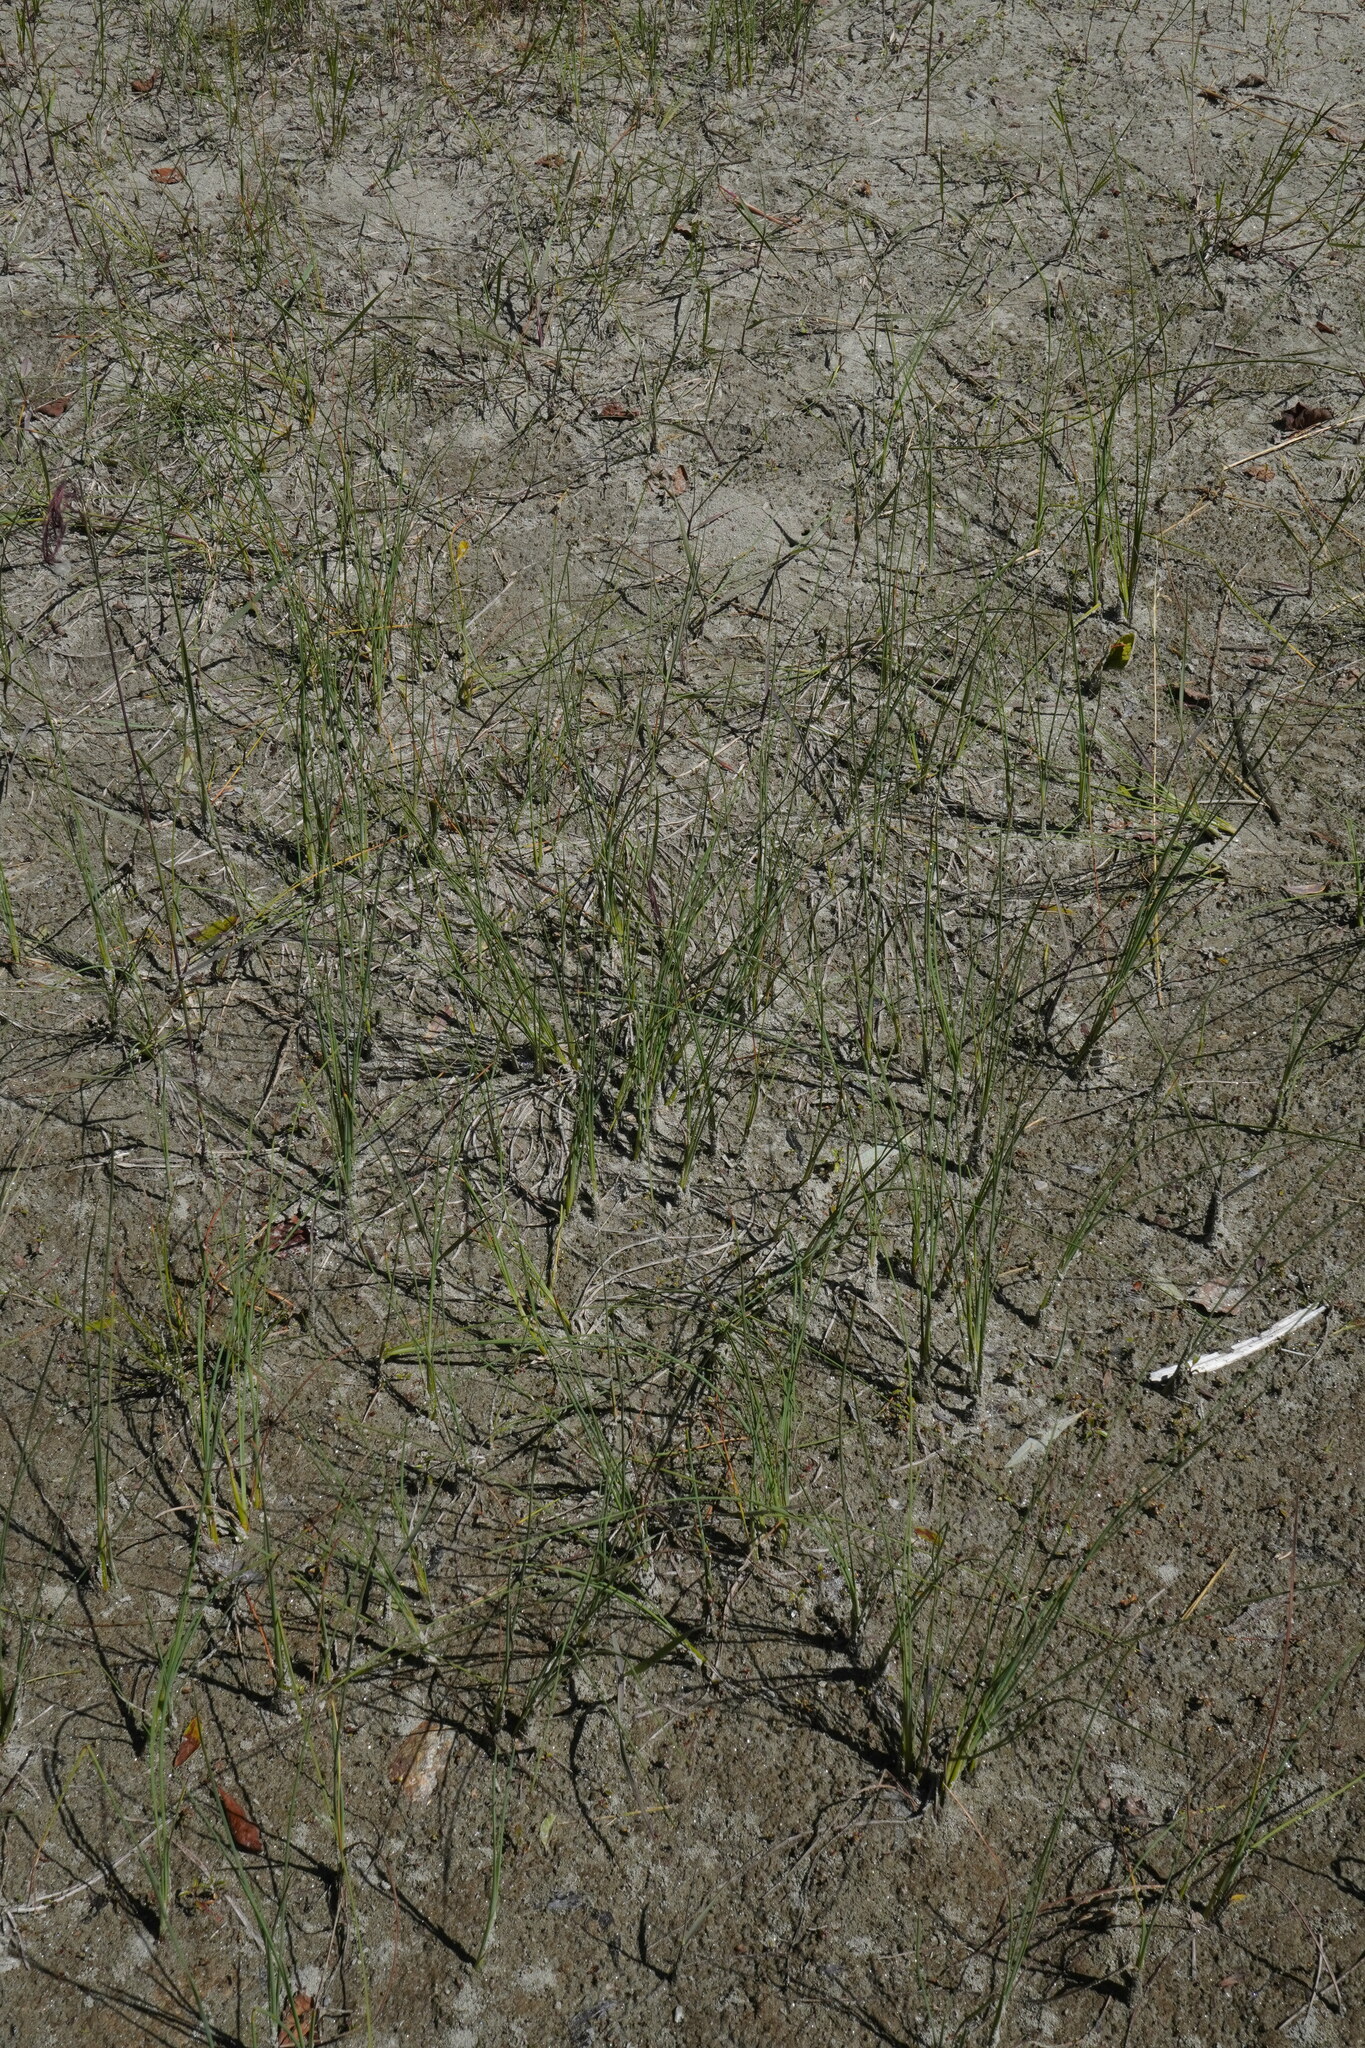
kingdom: Plantae
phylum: Tracheophyta
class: Liliopsida
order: Poales
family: Typhaceae
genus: Typha
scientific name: Typha minima
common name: Dwarf bulrush
